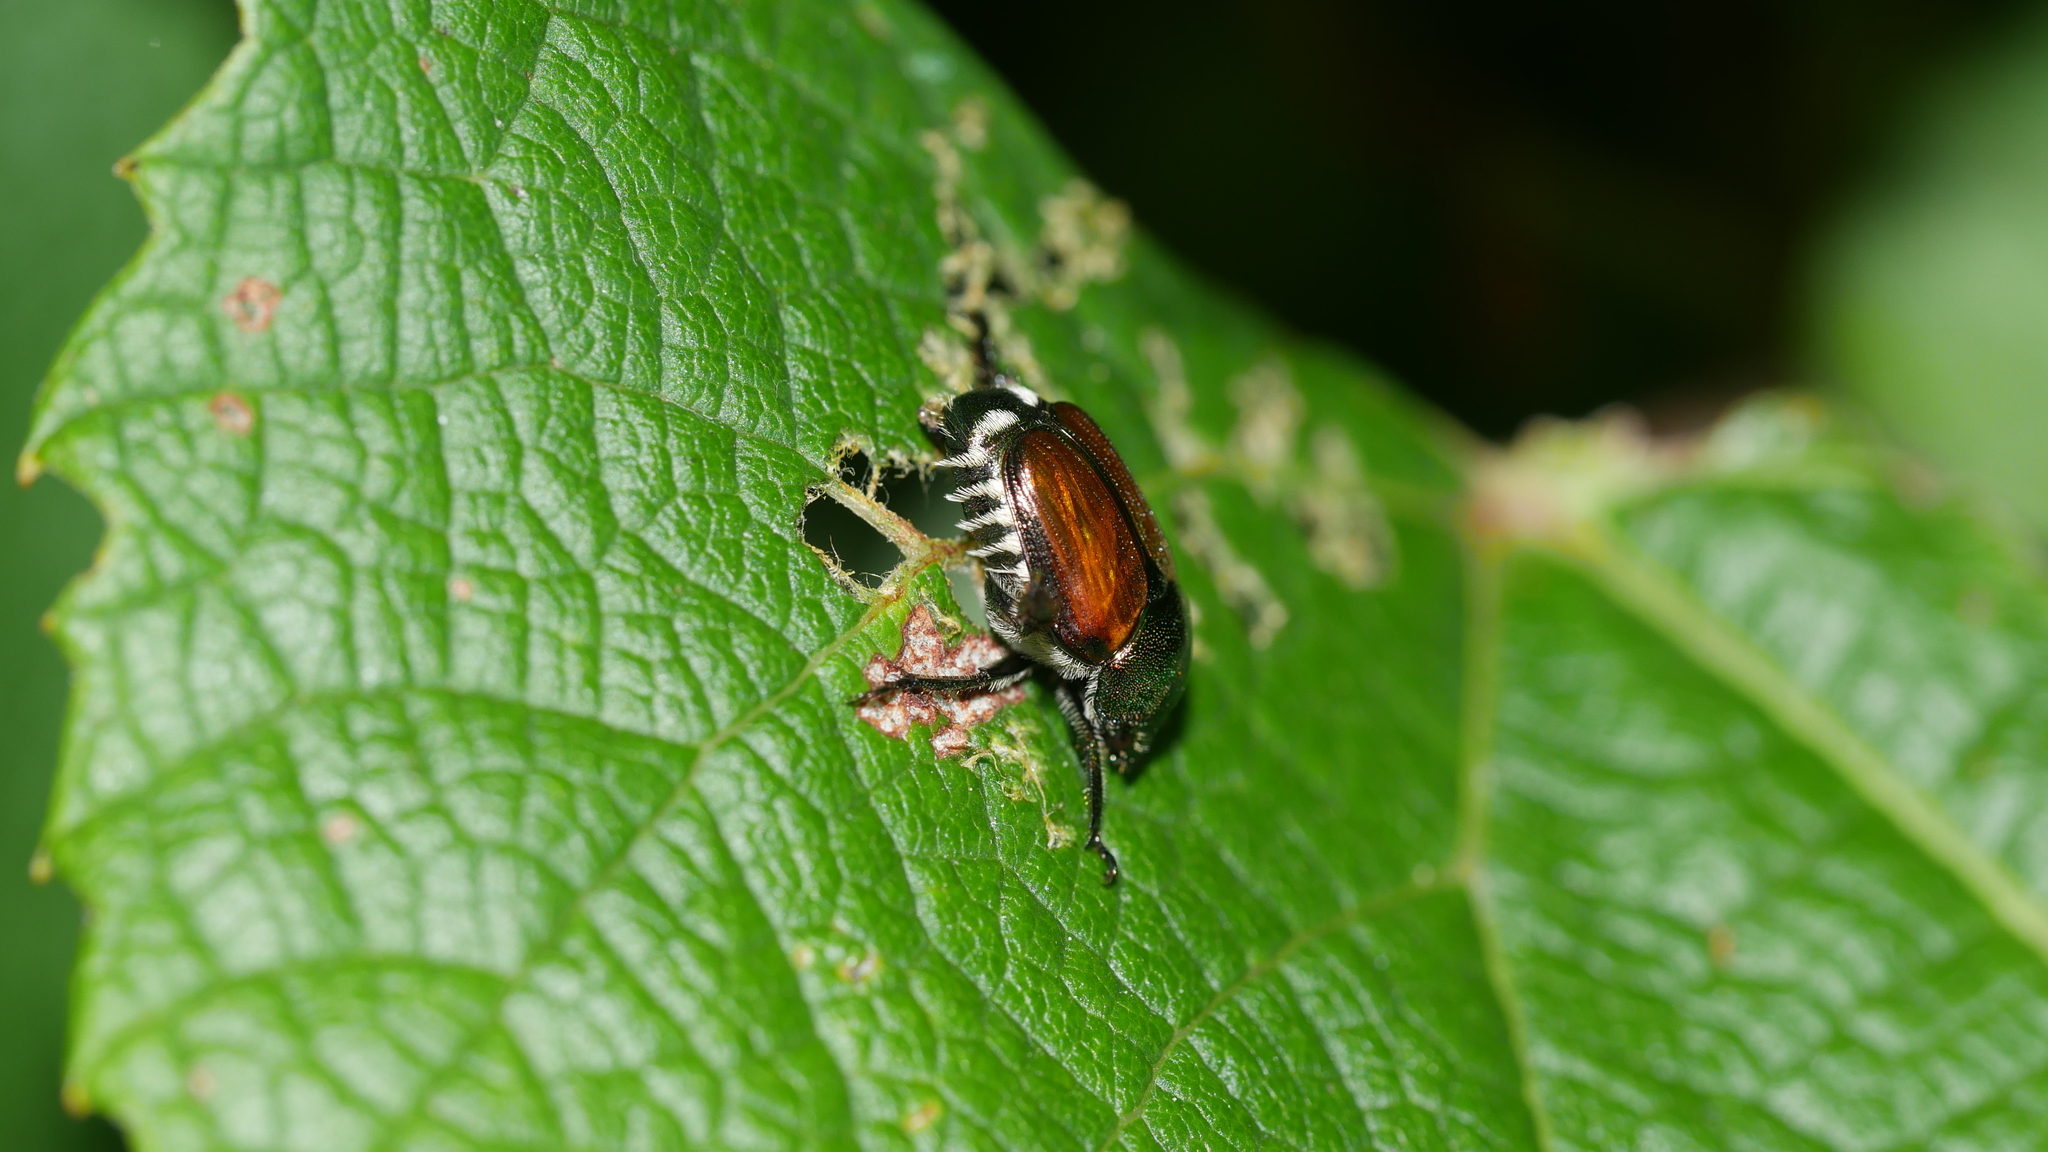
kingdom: Animalia
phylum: Arthropoda
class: Insecta
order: Coleoptera
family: Scarabaeidae
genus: Popillia
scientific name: Popillia japonica
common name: Japanese beetle
